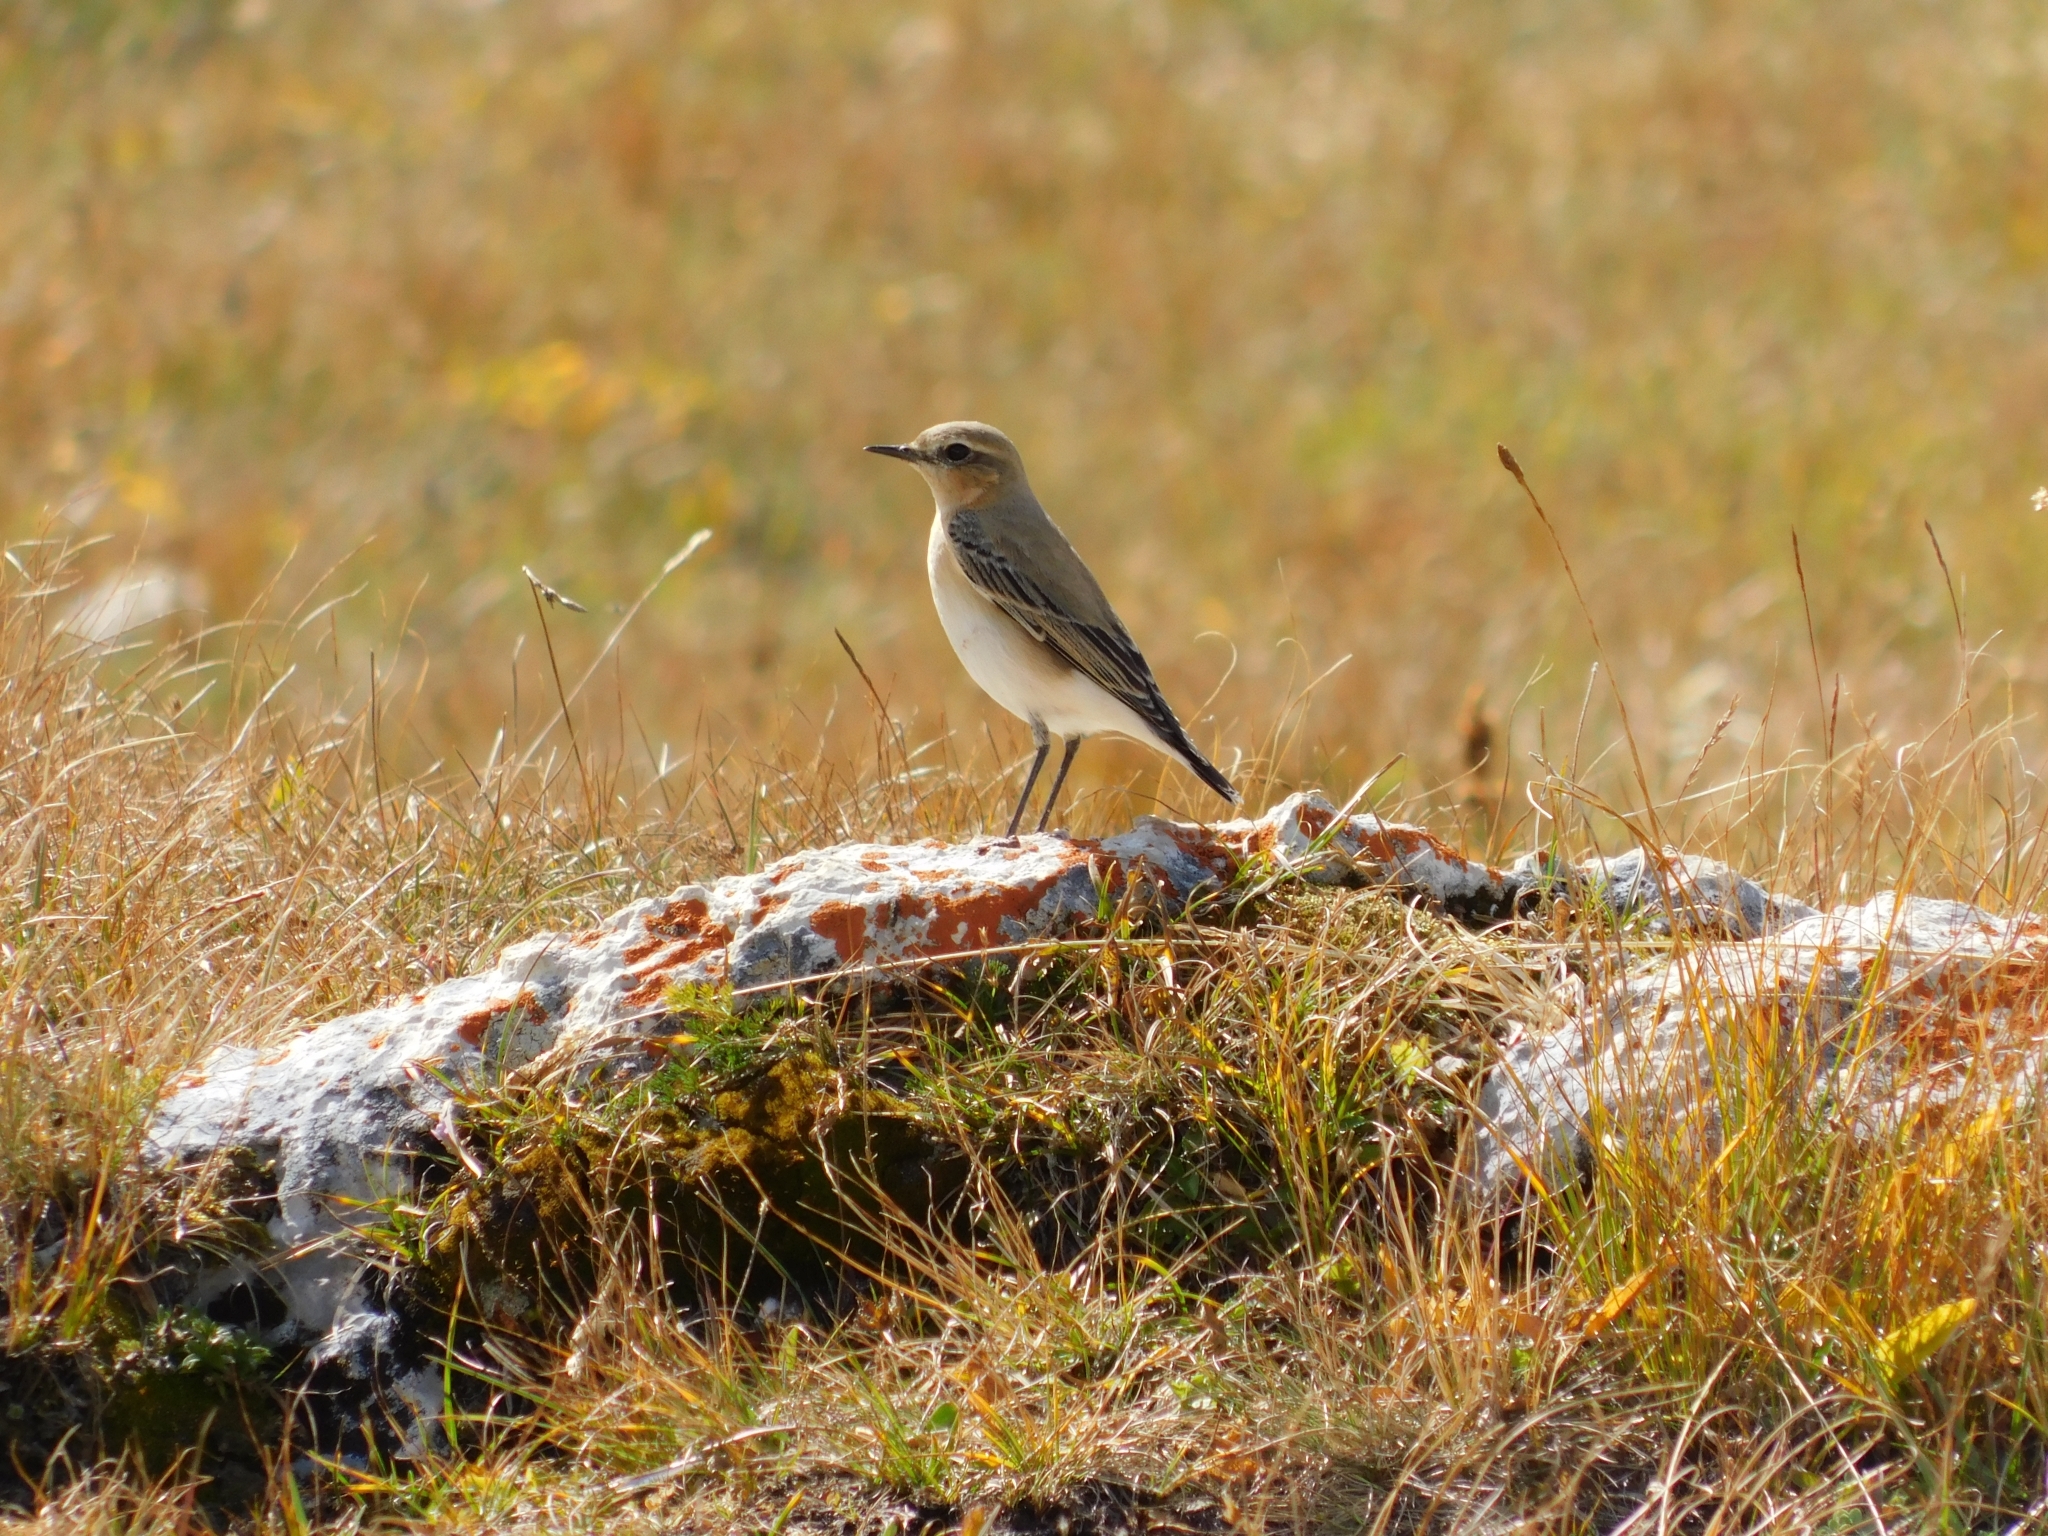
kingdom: Animalia
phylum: Chordata
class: Aves
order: Passeriformes
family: Muscicapidae
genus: Oenanthe
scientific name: Oenanthe oenanthe
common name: Northern wheatear
